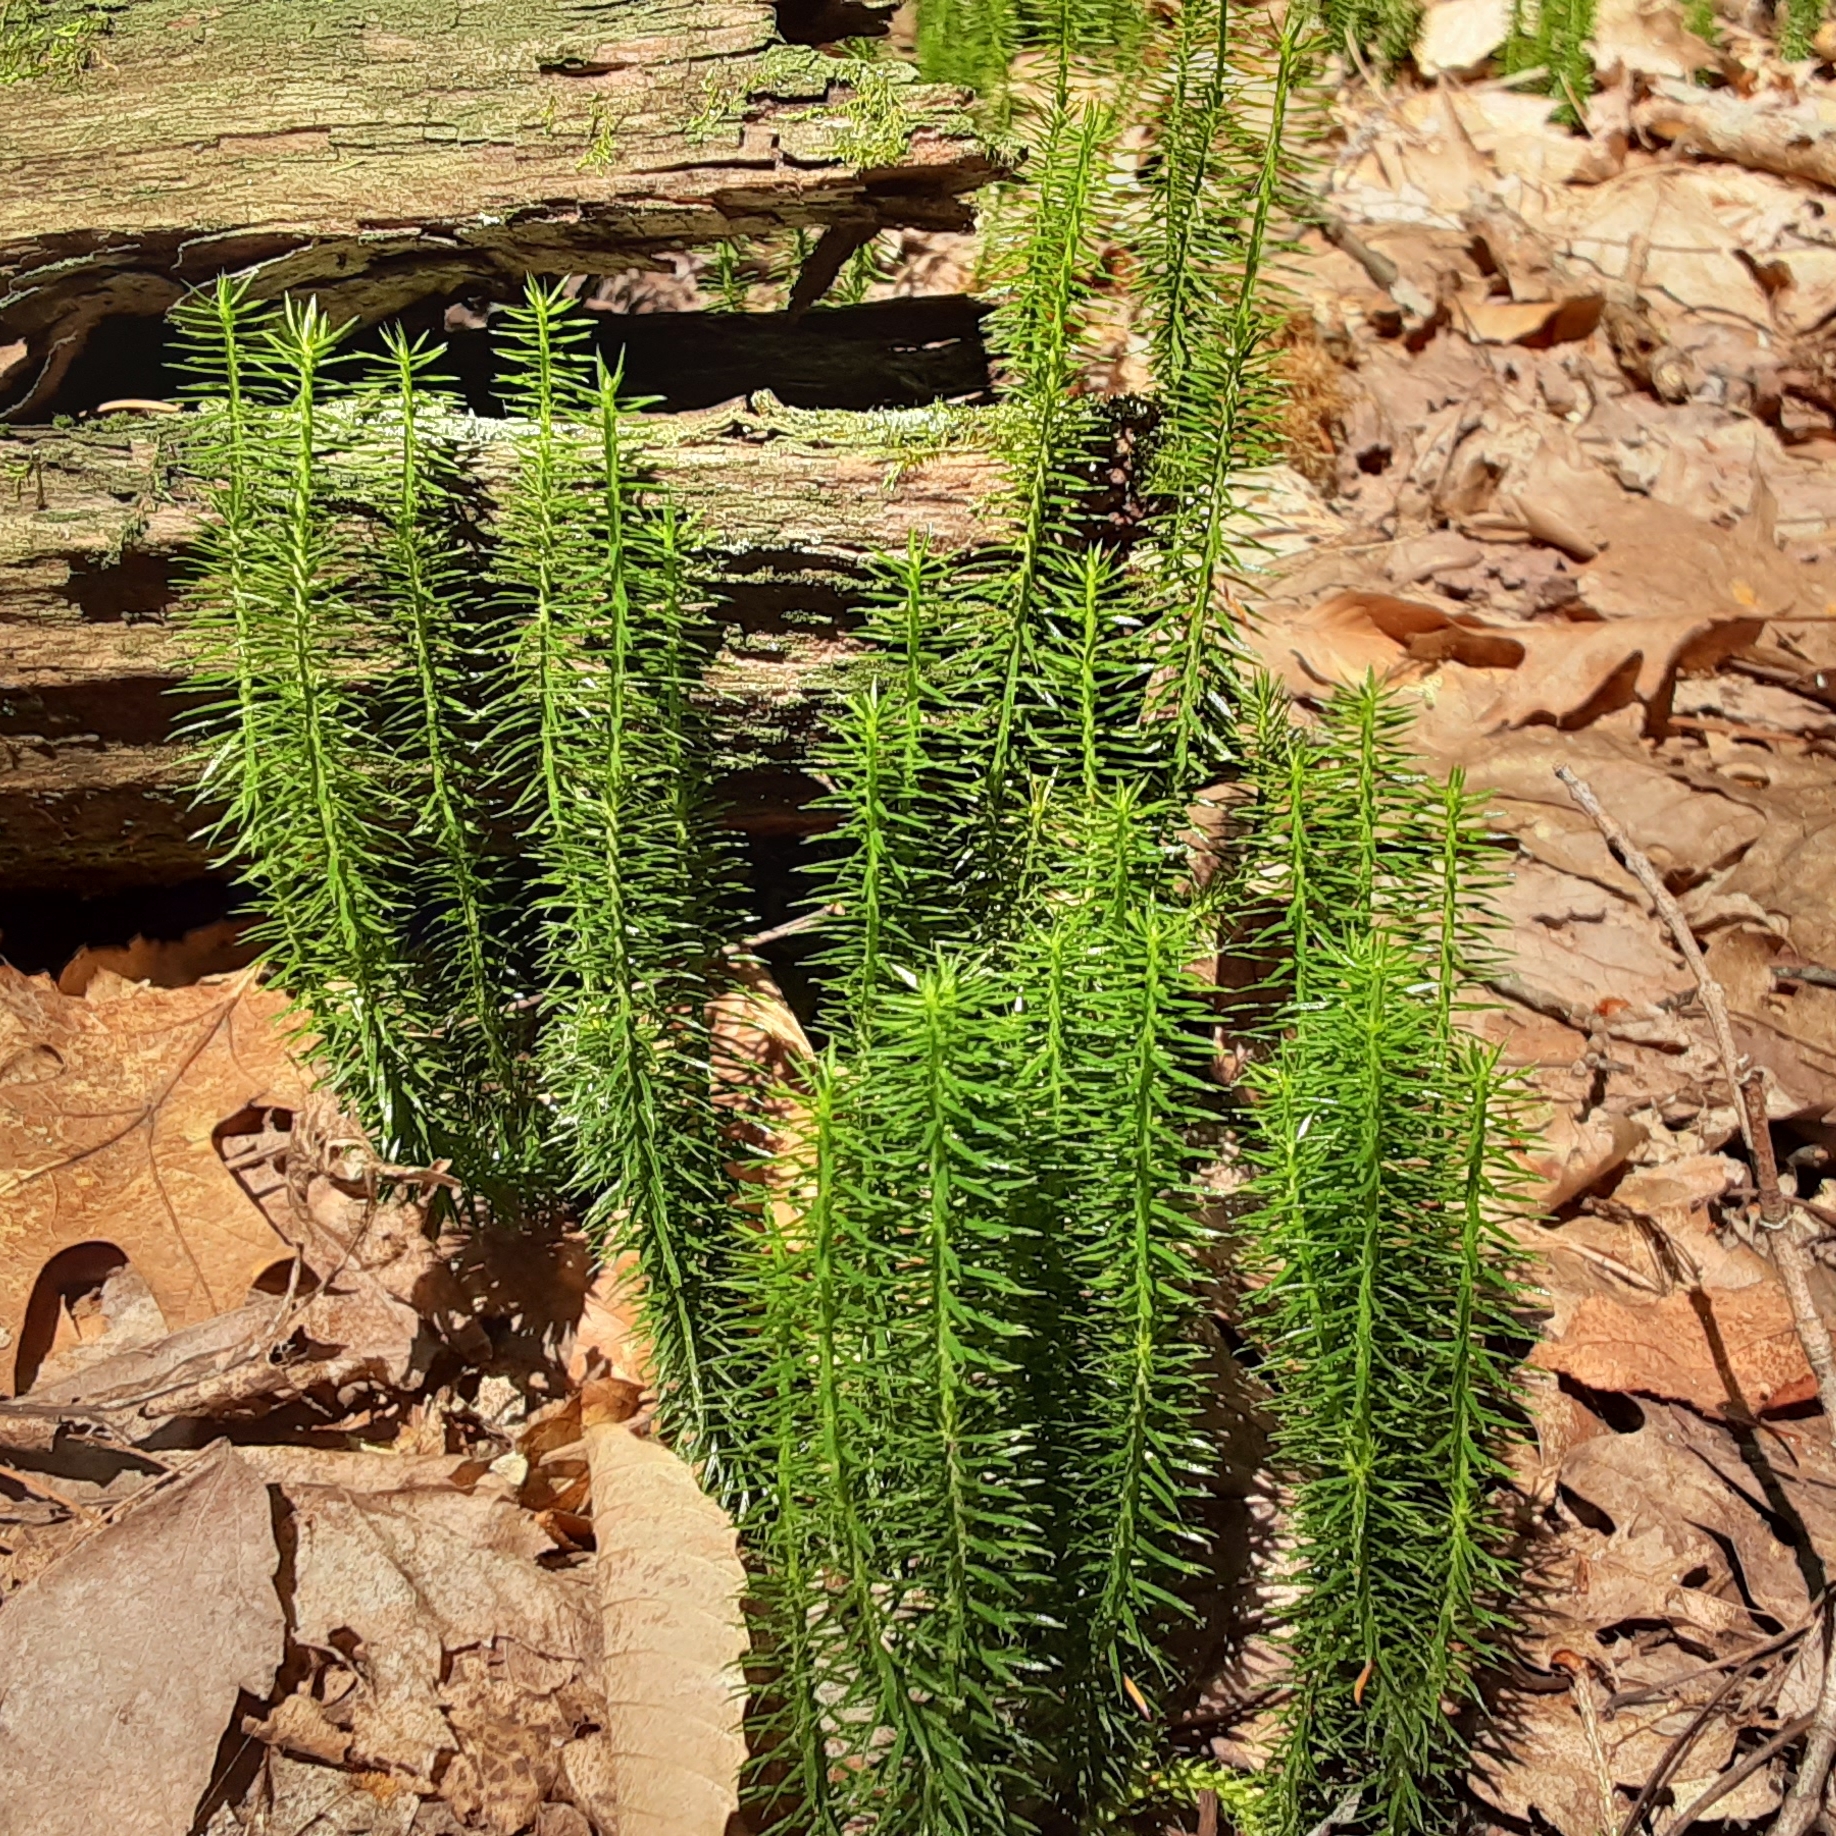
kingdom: Plantae
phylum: Tracheophyta
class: Lycopodiopsida
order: Lycopodiales
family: Lycopodiaceae
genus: Spinulum
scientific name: Spinulum annotinum
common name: Interrupted club-moss
